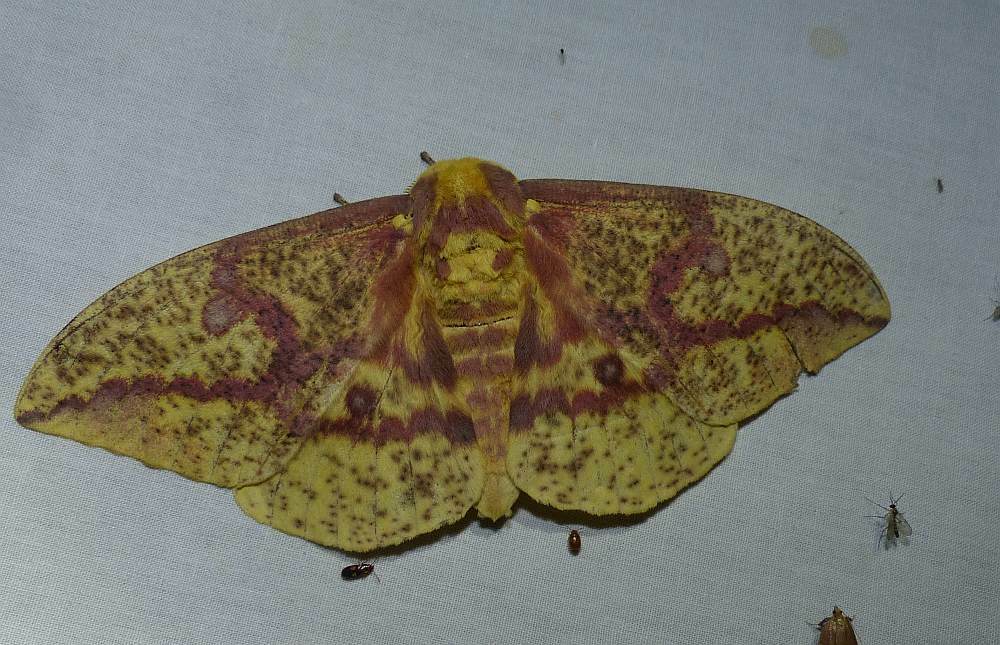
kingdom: Animalia
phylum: Arthropoda
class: Insecta
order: Lepidoptera
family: Saturniidae
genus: Eacles
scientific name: Eacles
